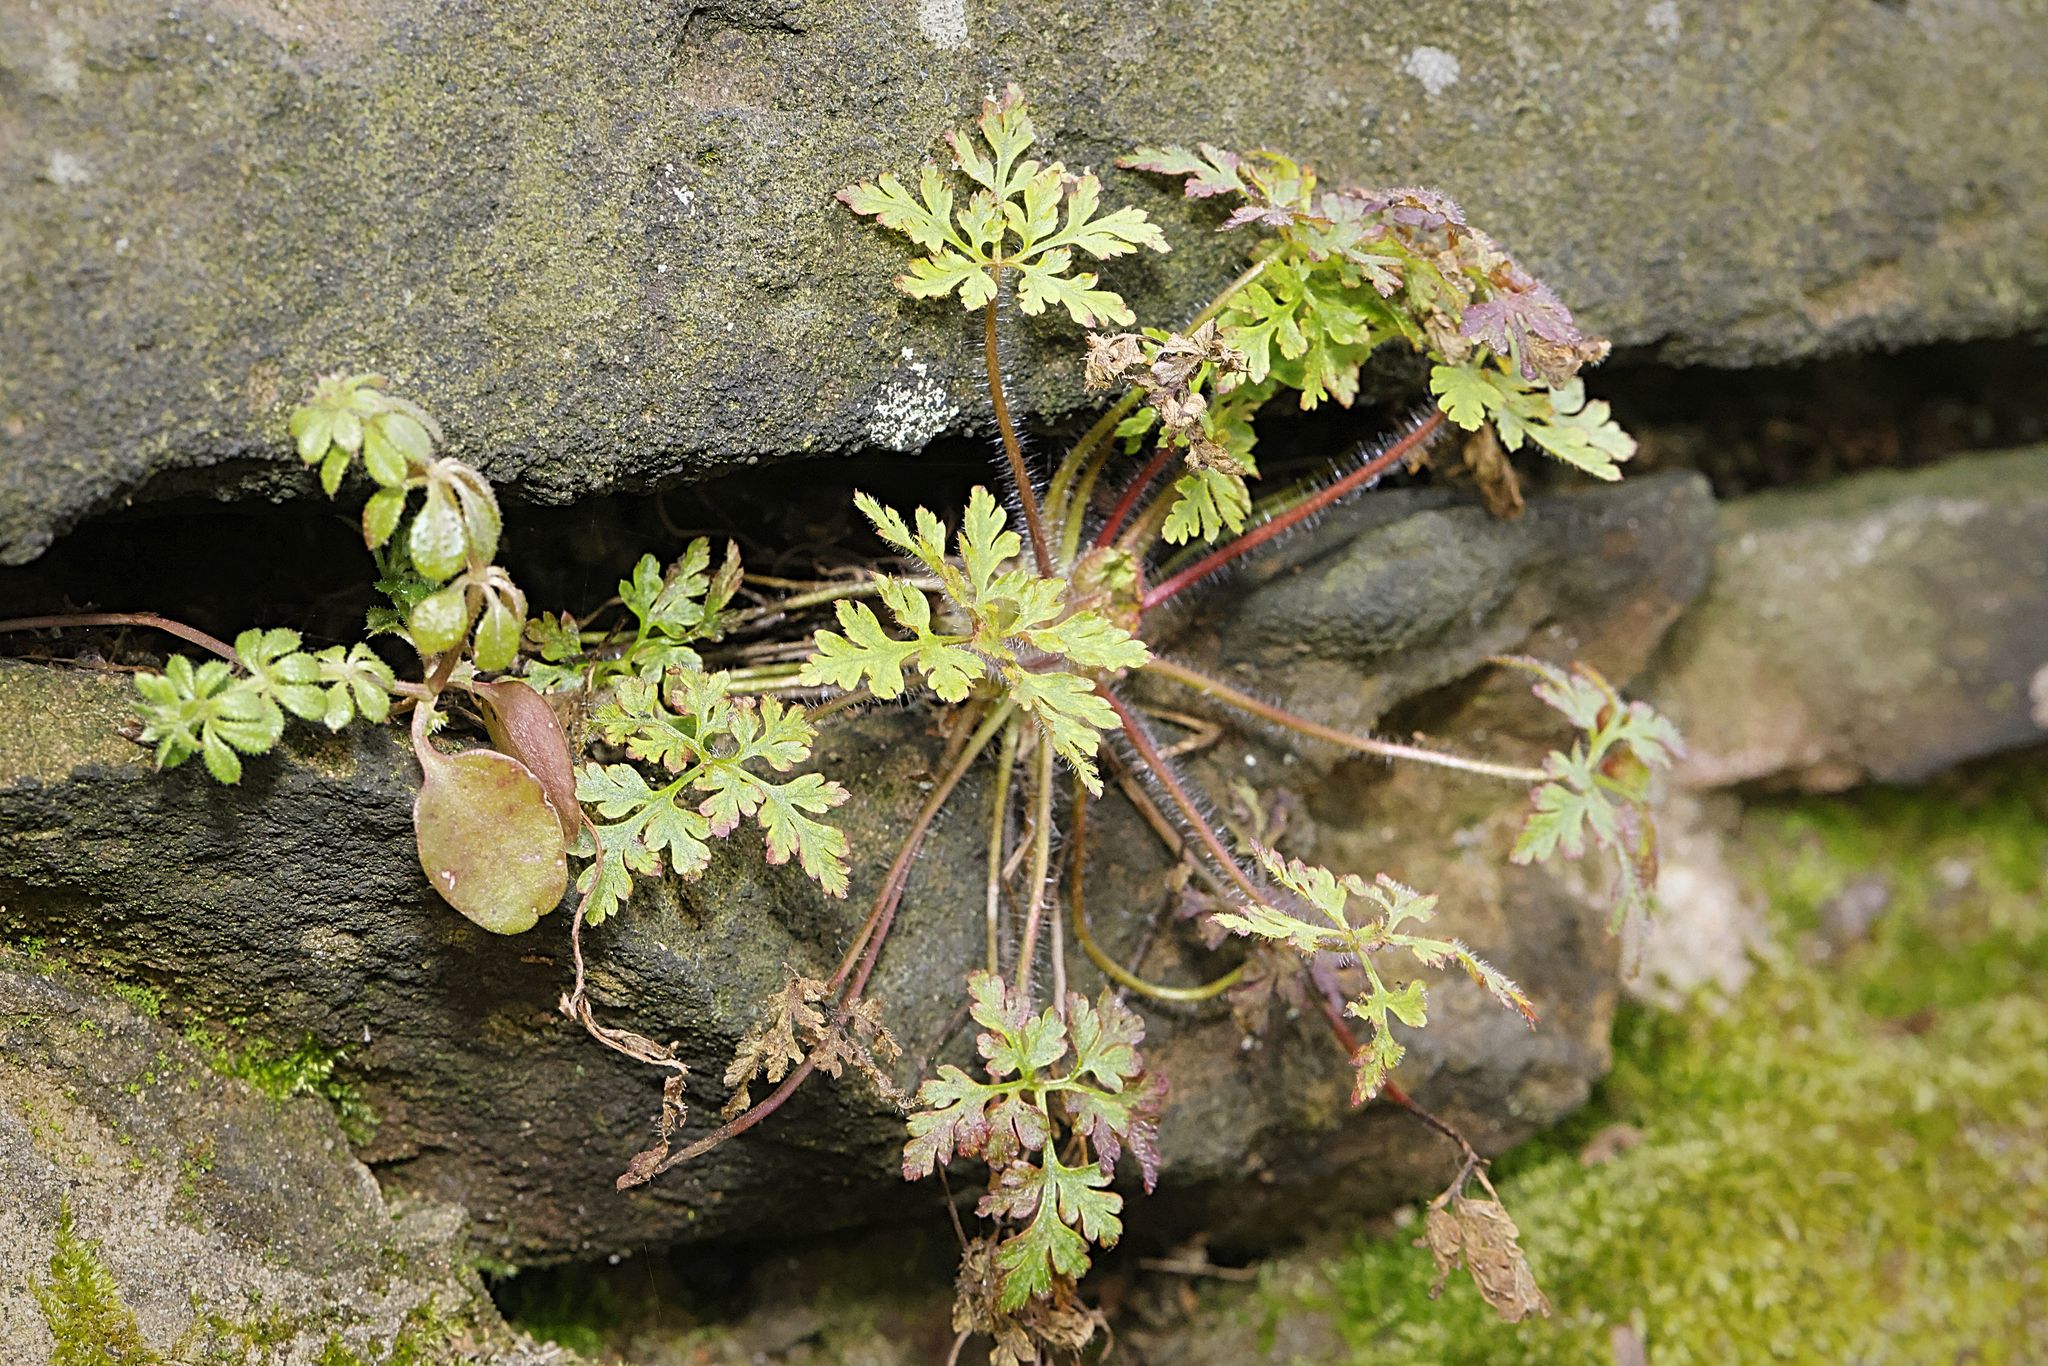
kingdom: Plantae
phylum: Tracheophyta
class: Magnoliopsida
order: Geraniales
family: Geraniaceae
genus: Geranium
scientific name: Geranium robertianum
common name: Herb-robert
